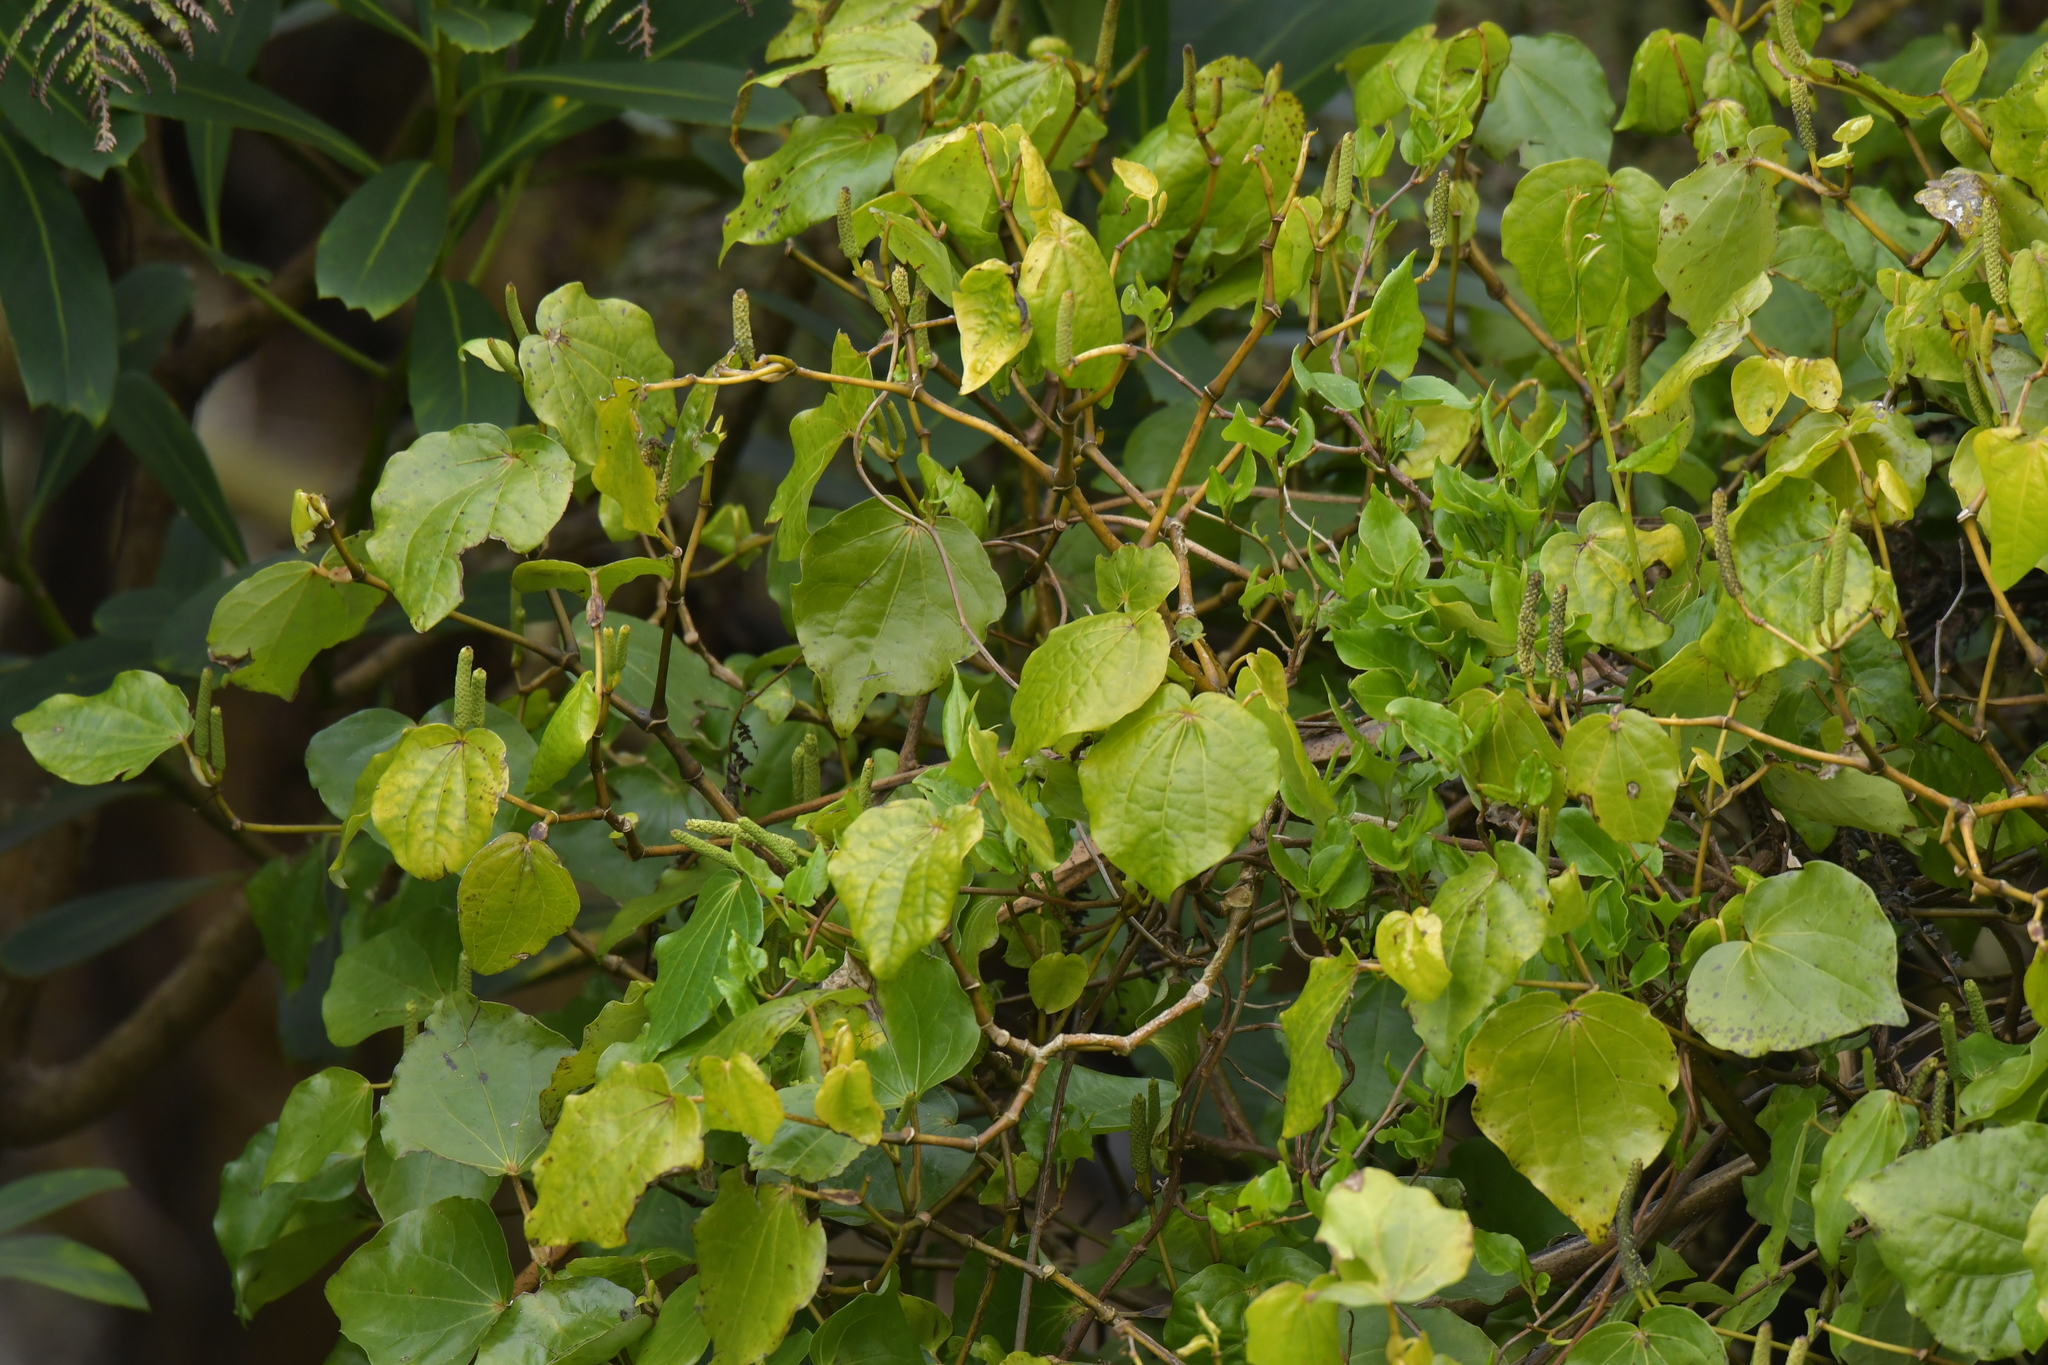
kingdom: Plantae
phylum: Tracheophyta
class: Magnoliopsida
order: Piperales
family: Piperaceae
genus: Macropiper
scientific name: Macropiper excelsum
